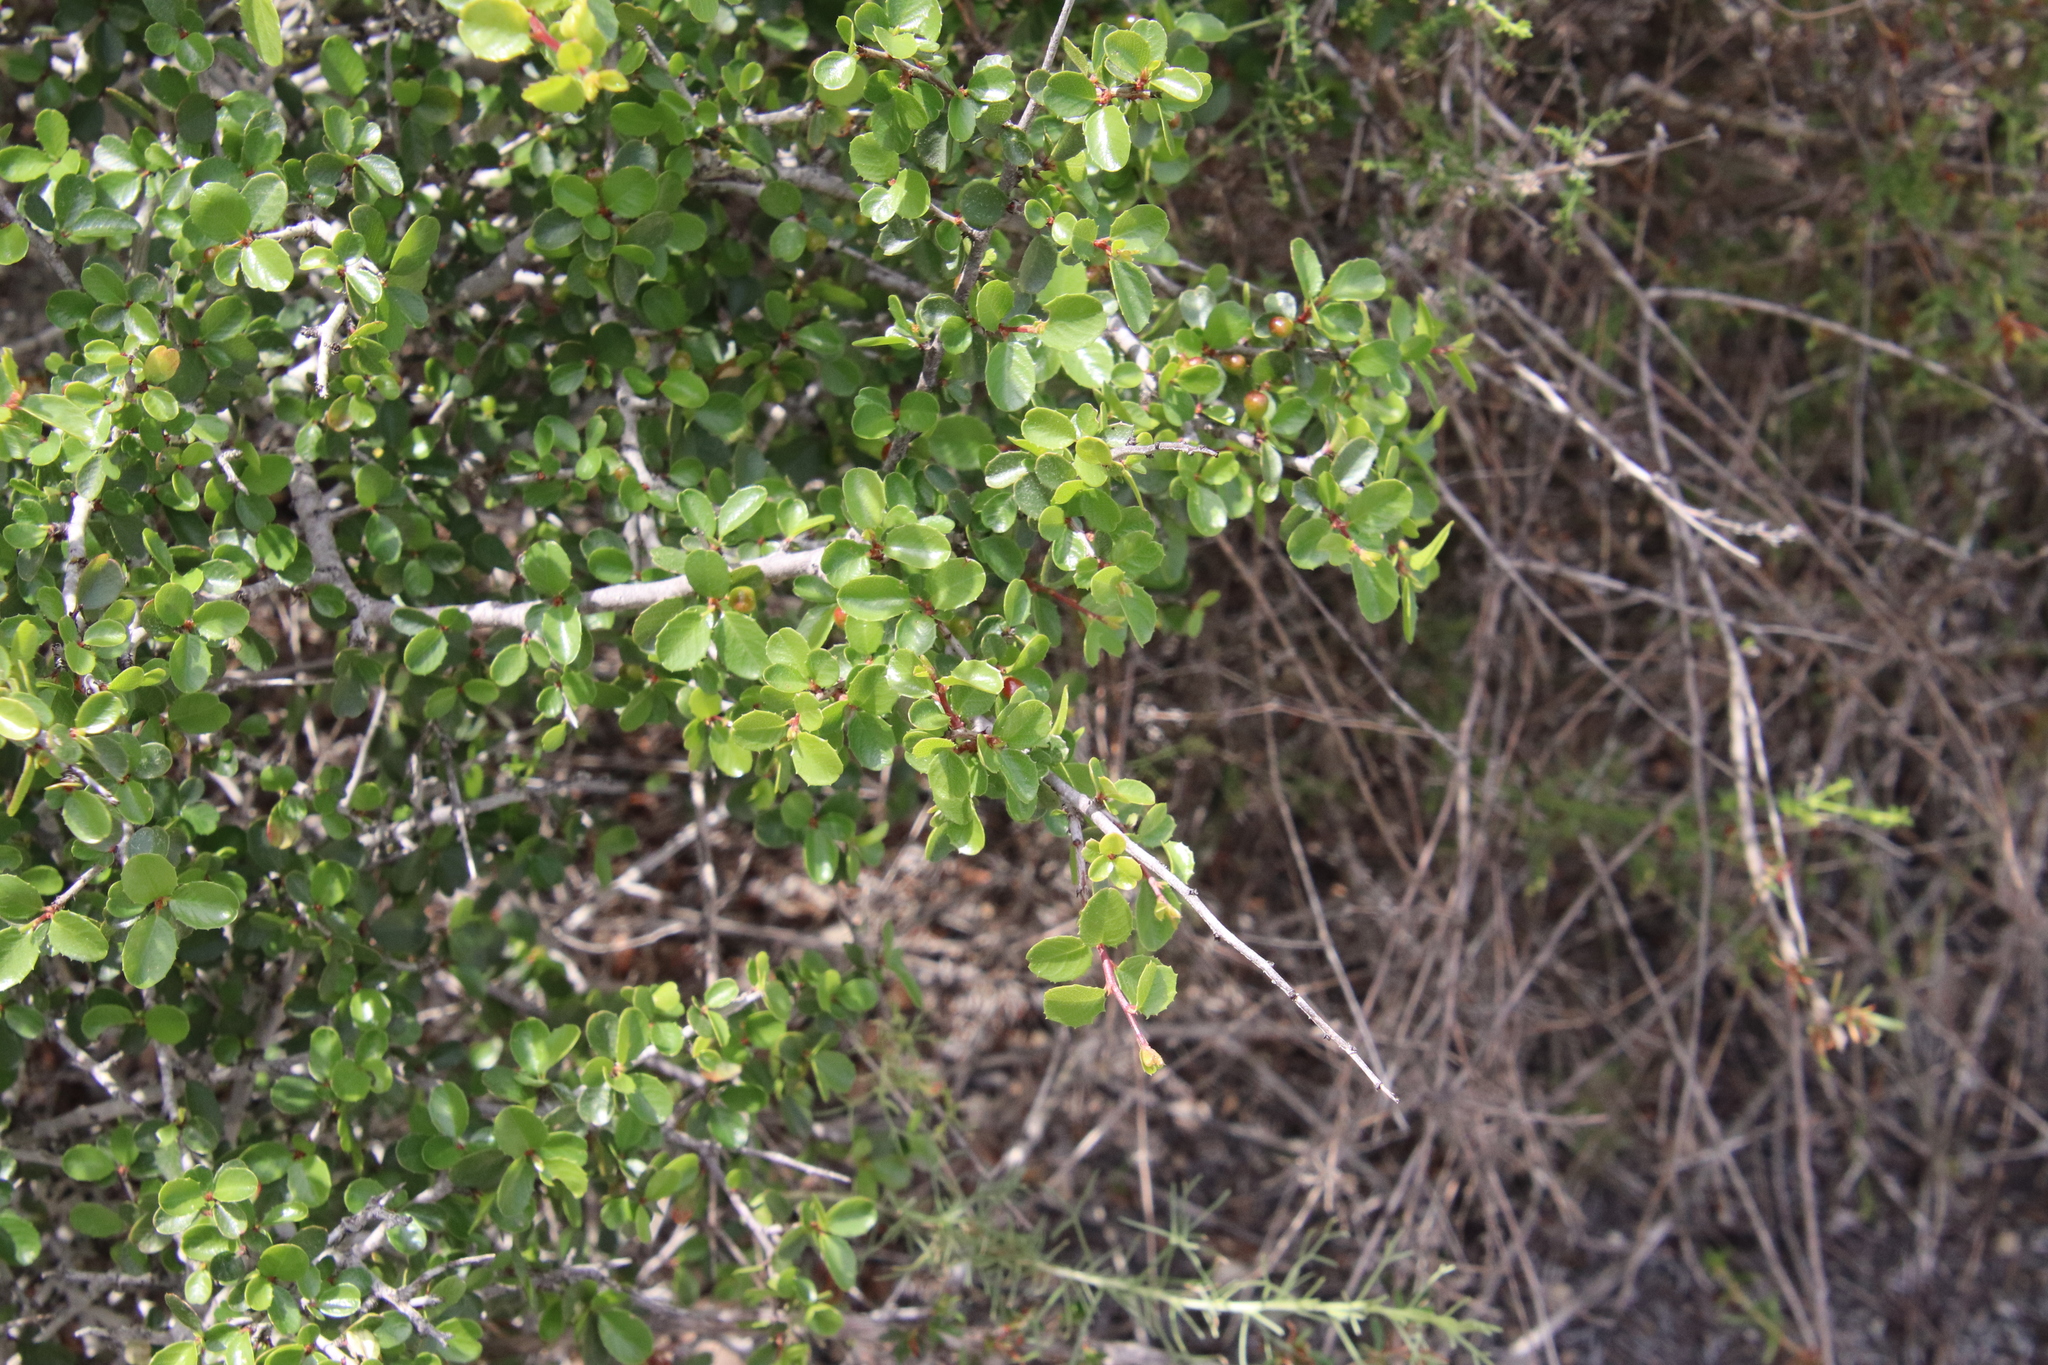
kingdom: Plantae
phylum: Tracheophyta
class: Magnoliopsida
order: Rosales
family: Rhamnaceae
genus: Endotropis
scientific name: Endotropis crocea
